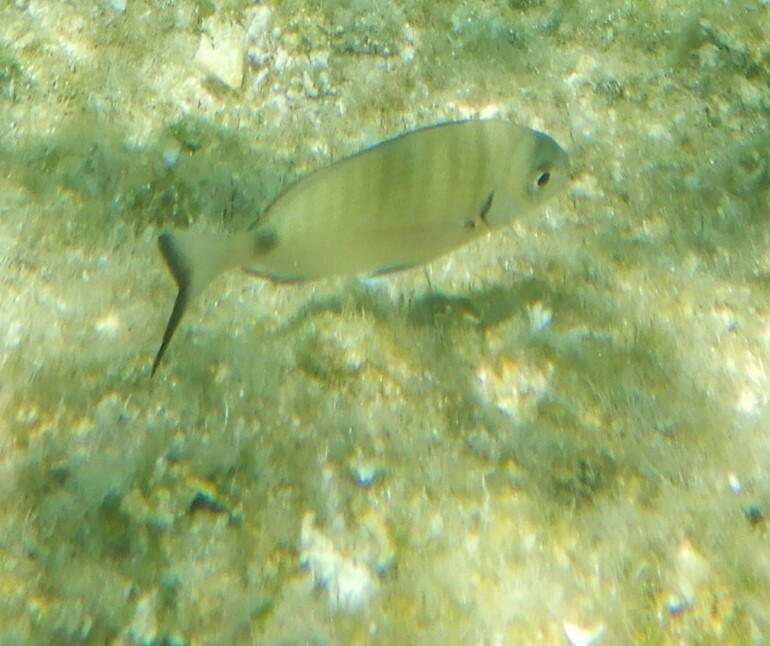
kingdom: Animalia
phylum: Chordata
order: Perciformes
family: Sparidae
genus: Diplodus
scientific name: Diplodus sargus
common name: White seabream
